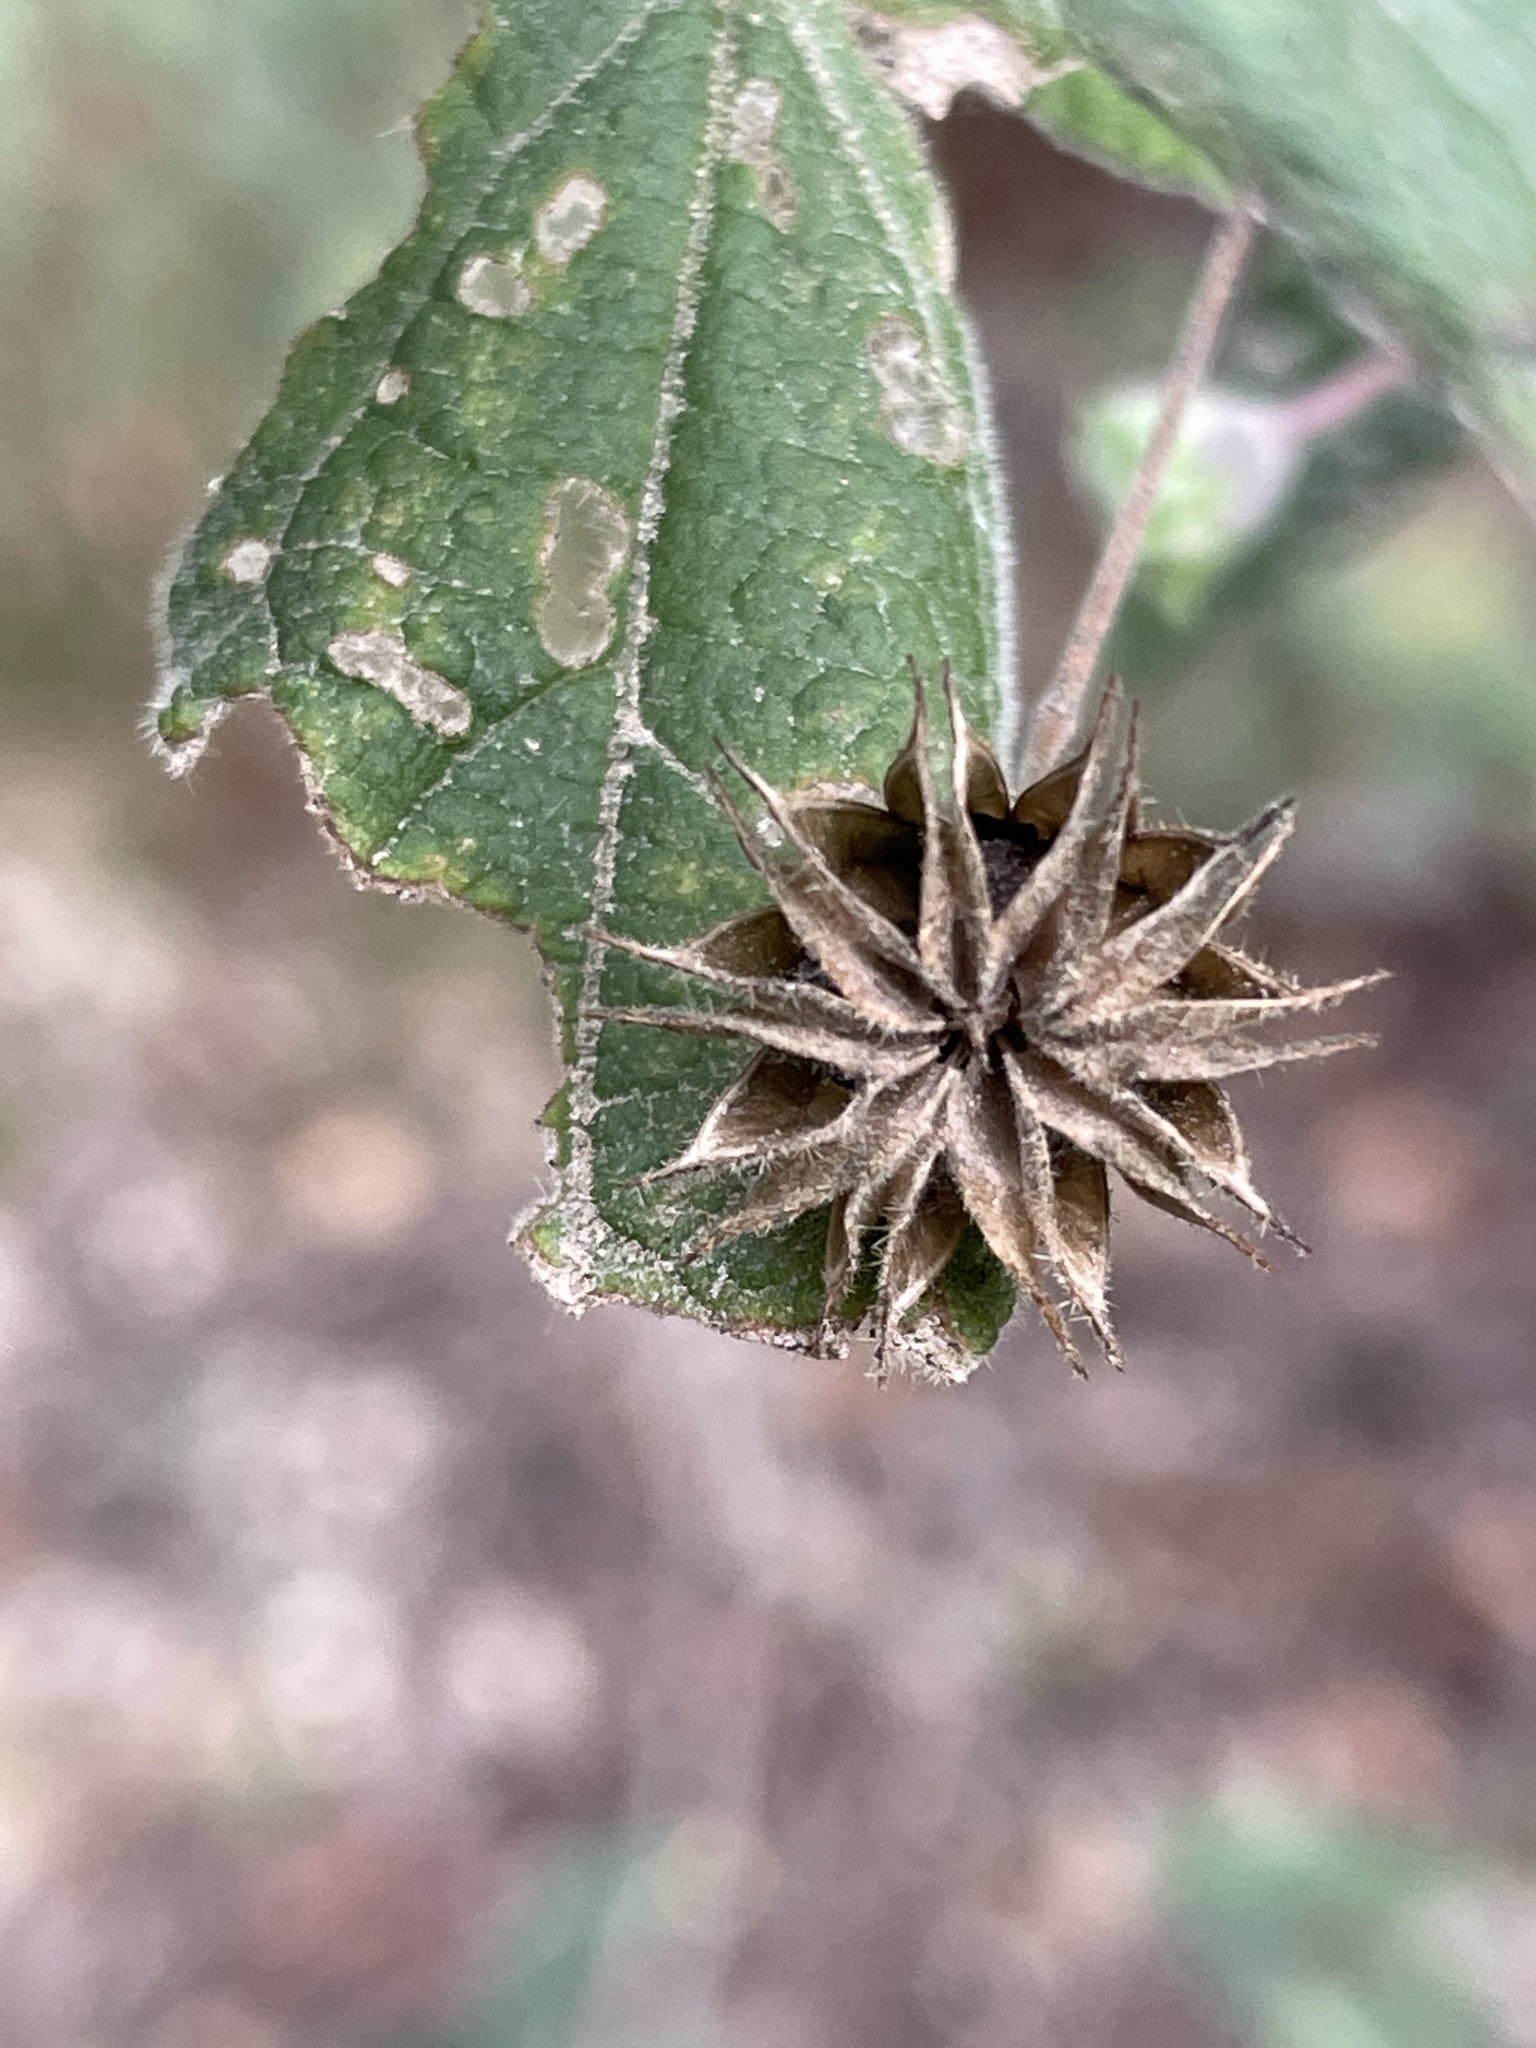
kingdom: Plantae
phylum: Tracheophyta
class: Magnoliopsida
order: Malvales
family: Malvaceae
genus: Abutilon
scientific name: Abutilon oxycarpum
